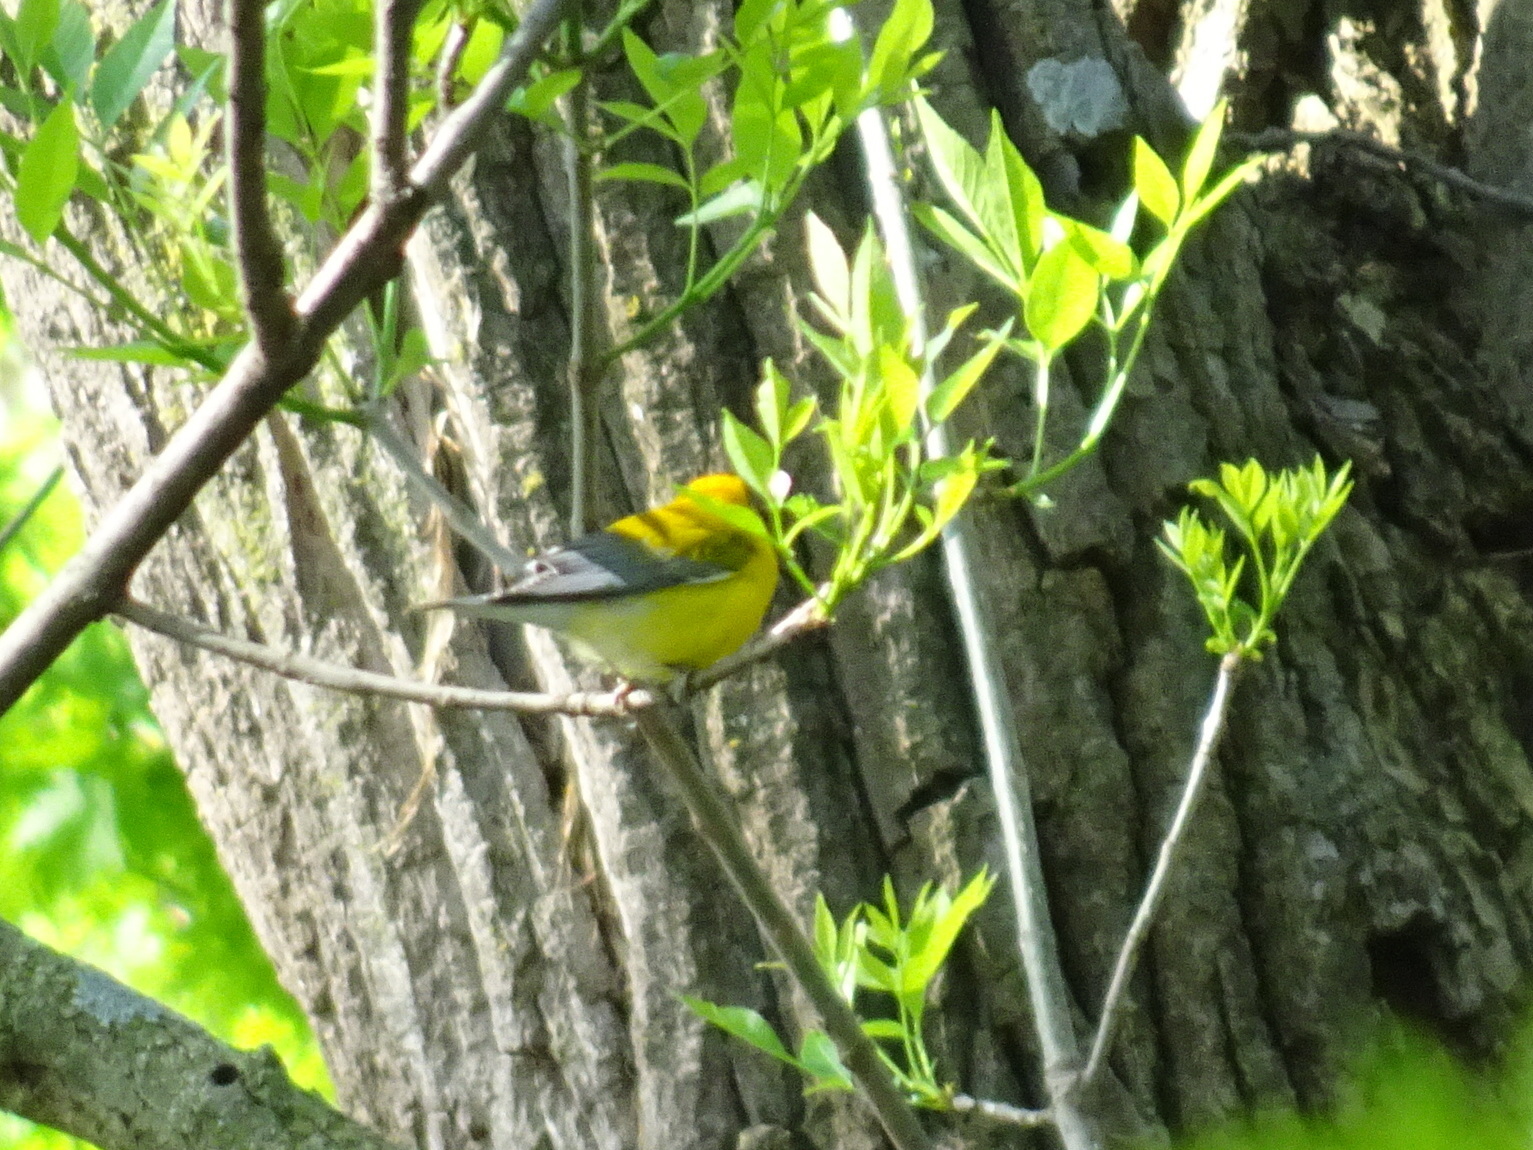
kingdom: Animalia
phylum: Chordata
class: Aves
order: Passeriformes
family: Parulidae
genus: Protonotaria
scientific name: Protonotaria citrea
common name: Prothonotary warbler
